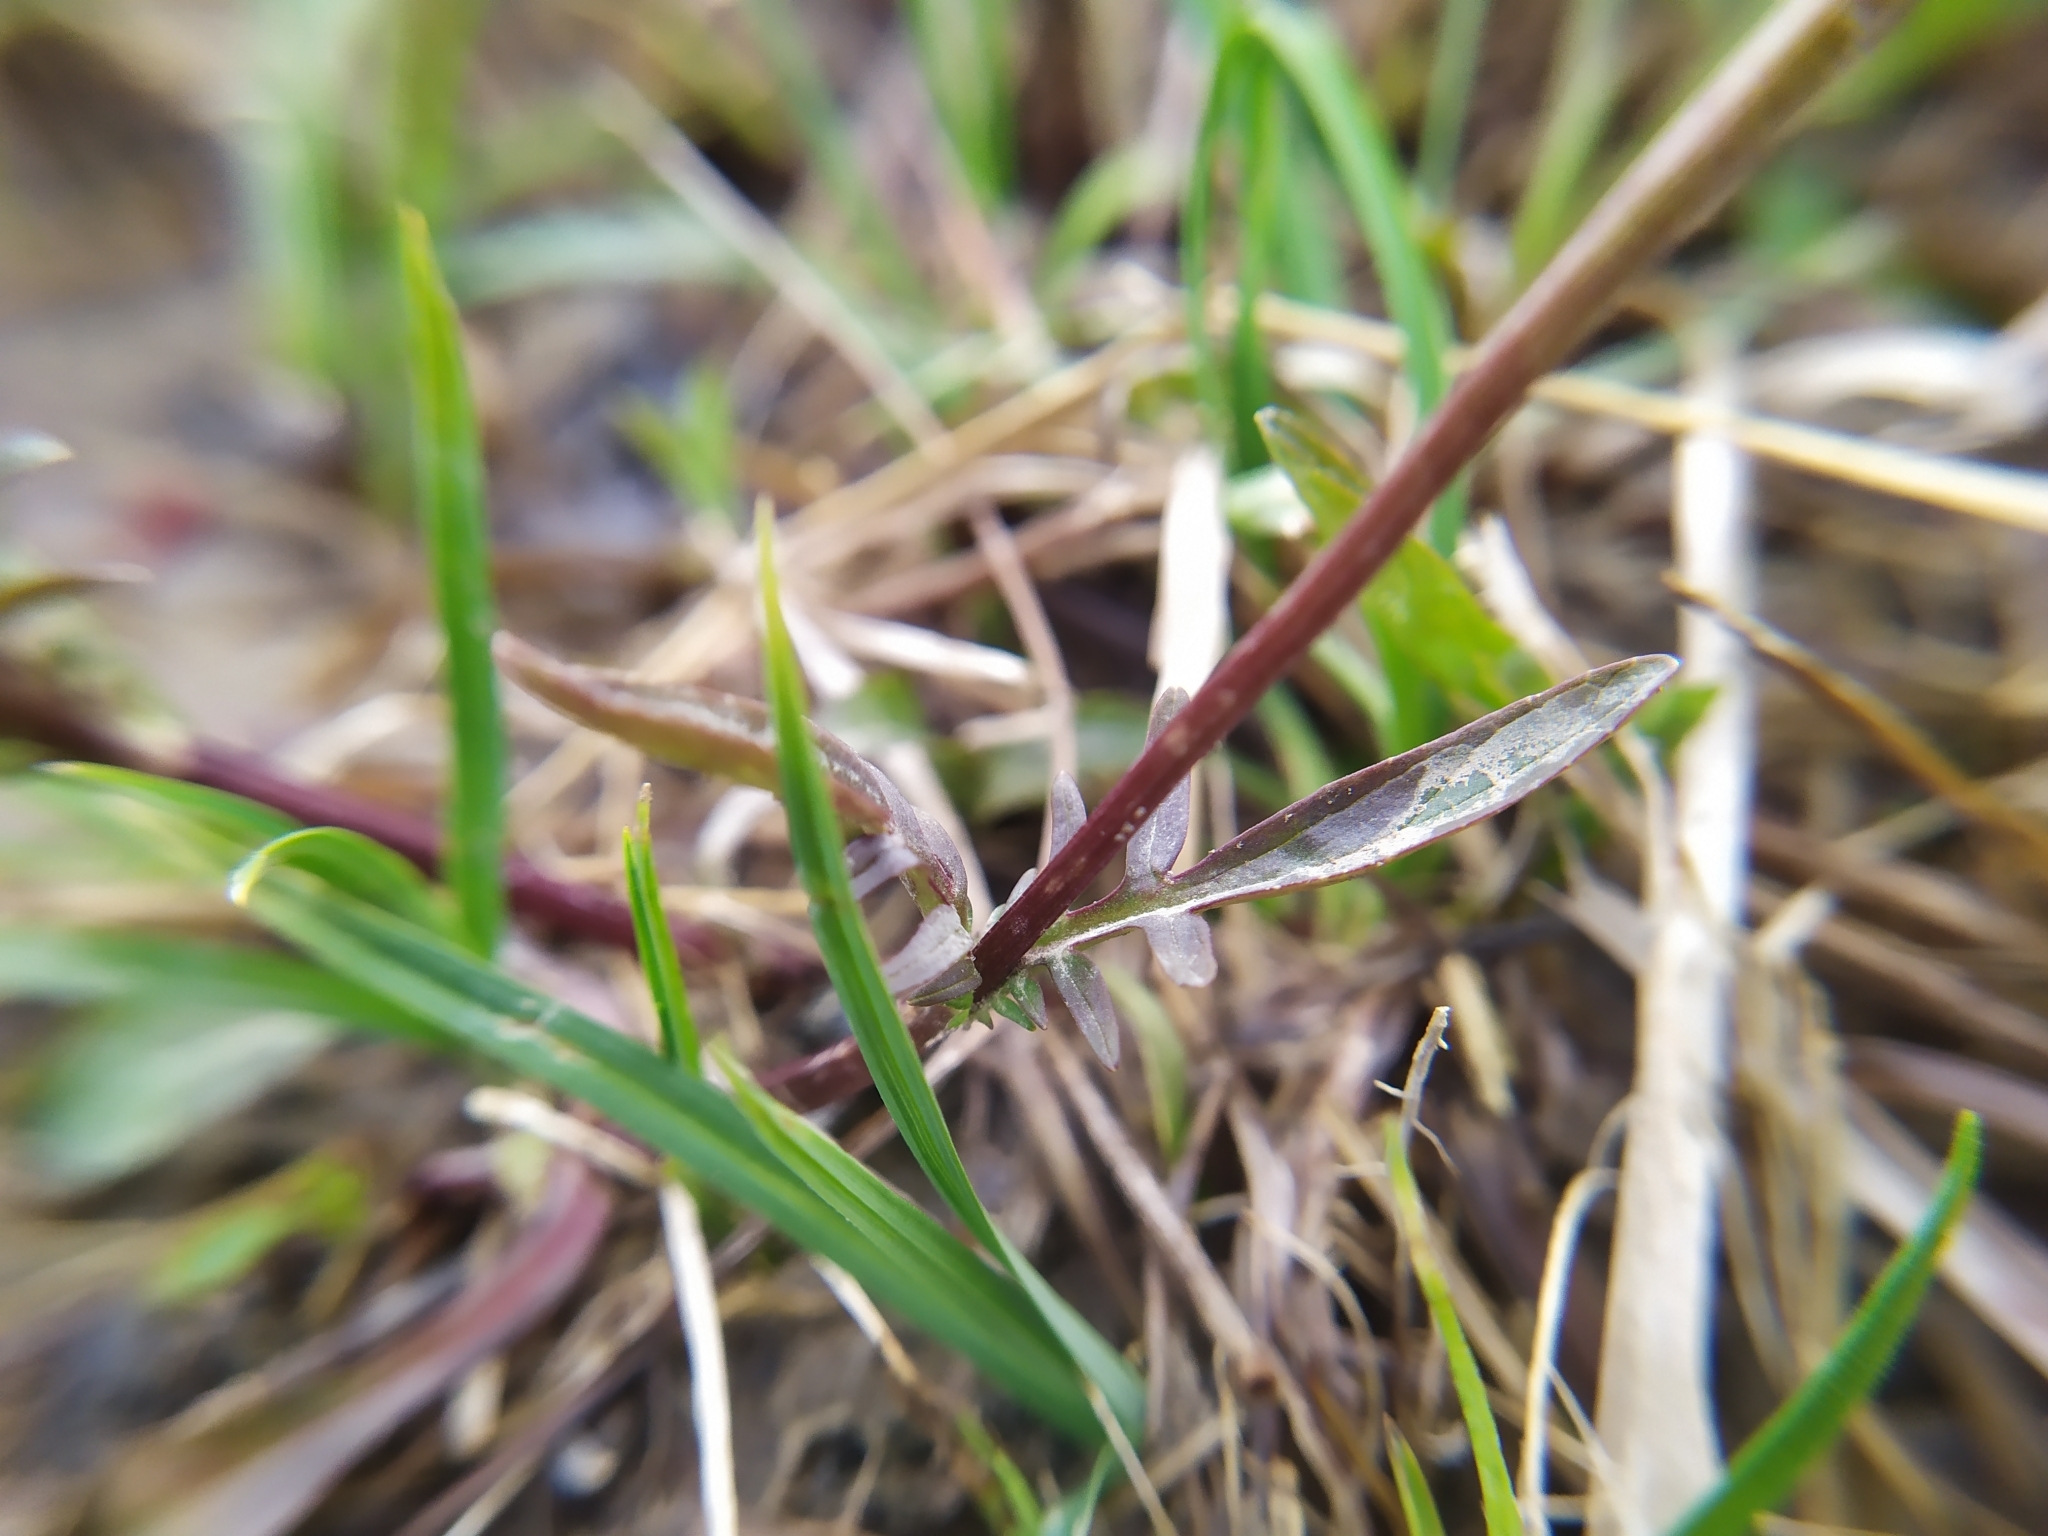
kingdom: Plantae
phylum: Tracheophyta
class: Magnoliopsida
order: Dipsacales
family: Caprifoliaceae
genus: Valeriana
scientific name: Valeriana dioica
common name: Marsh valerian
